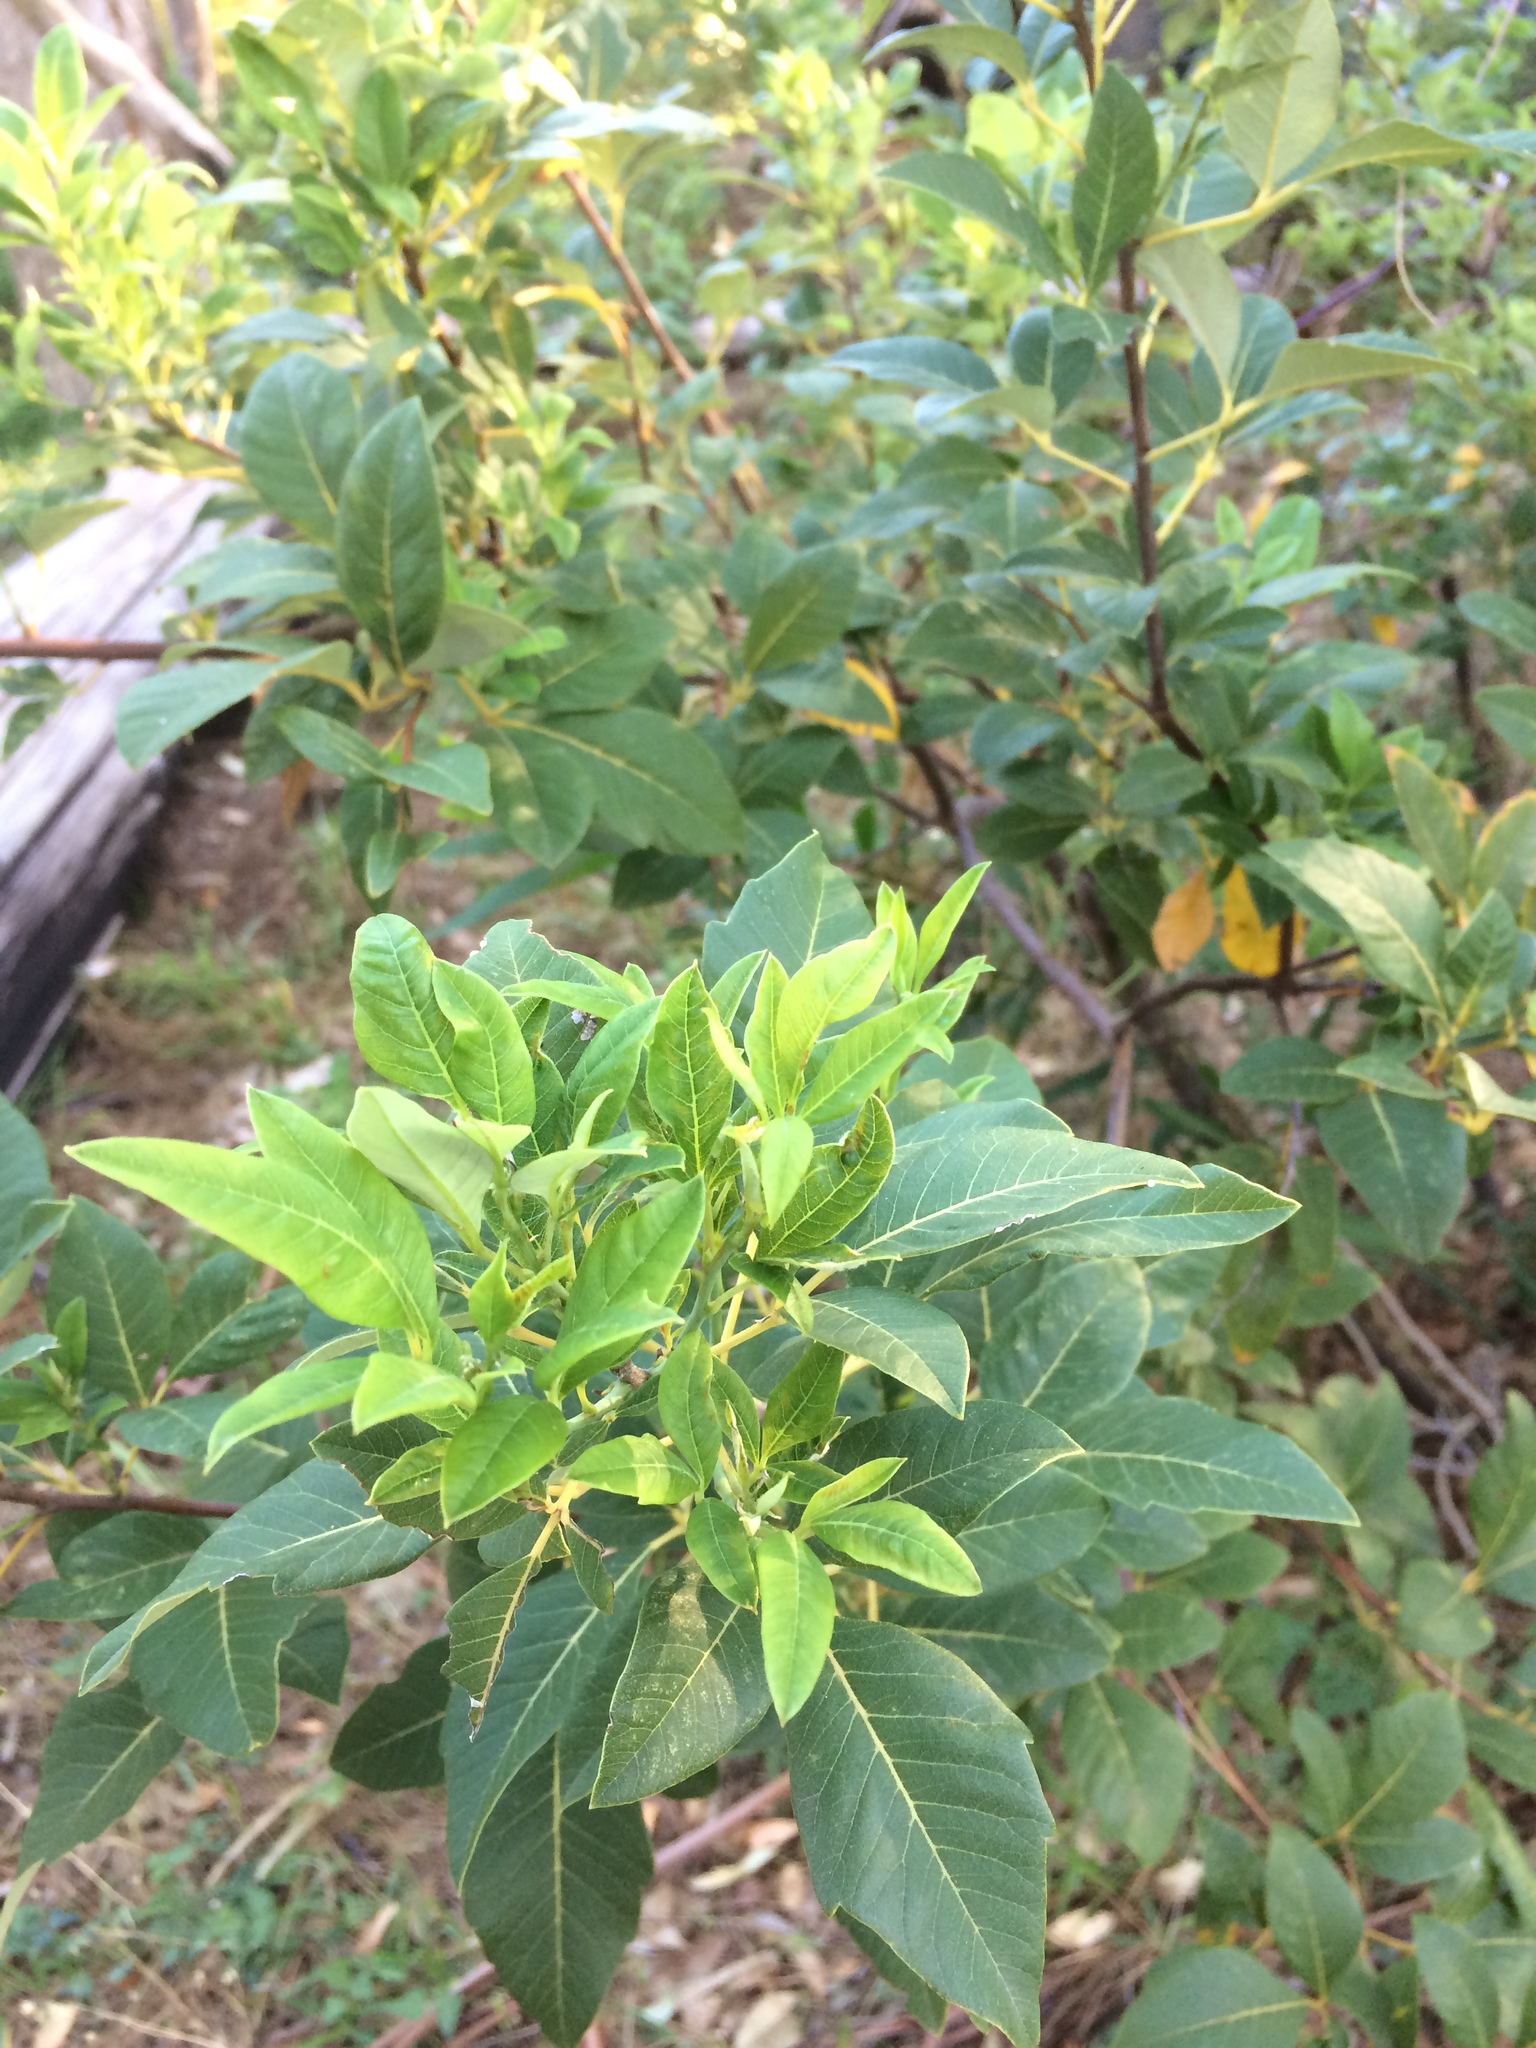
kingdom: Plantae
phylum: Tracheophyta
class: Magnoliopsida
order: Sapindales
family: Anacardiaceae
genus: Searsia
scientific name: Searsia tomentosa
